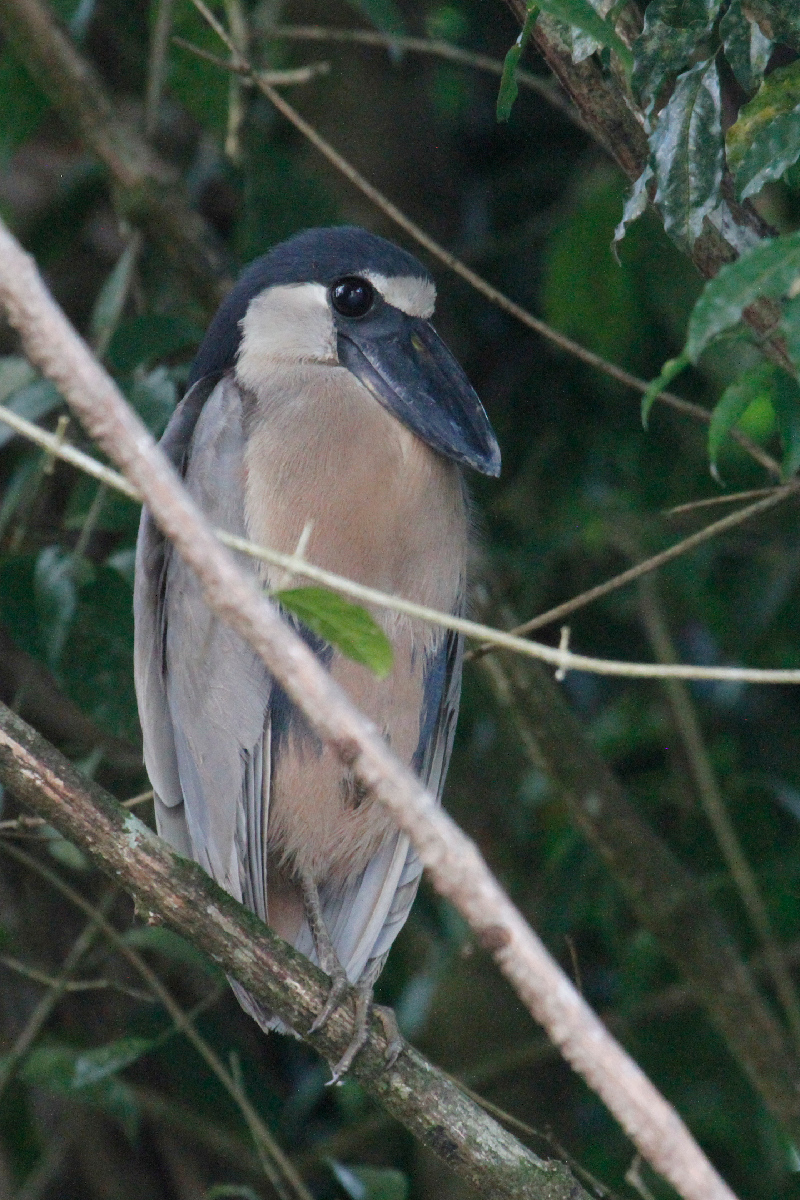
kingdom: Animalia
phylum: Chordata
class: Aves
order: Pelecaniformes
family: Ardeidae
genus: Cochlearius
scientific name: Cochlearius cochlearius
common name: Boat-billed heron
